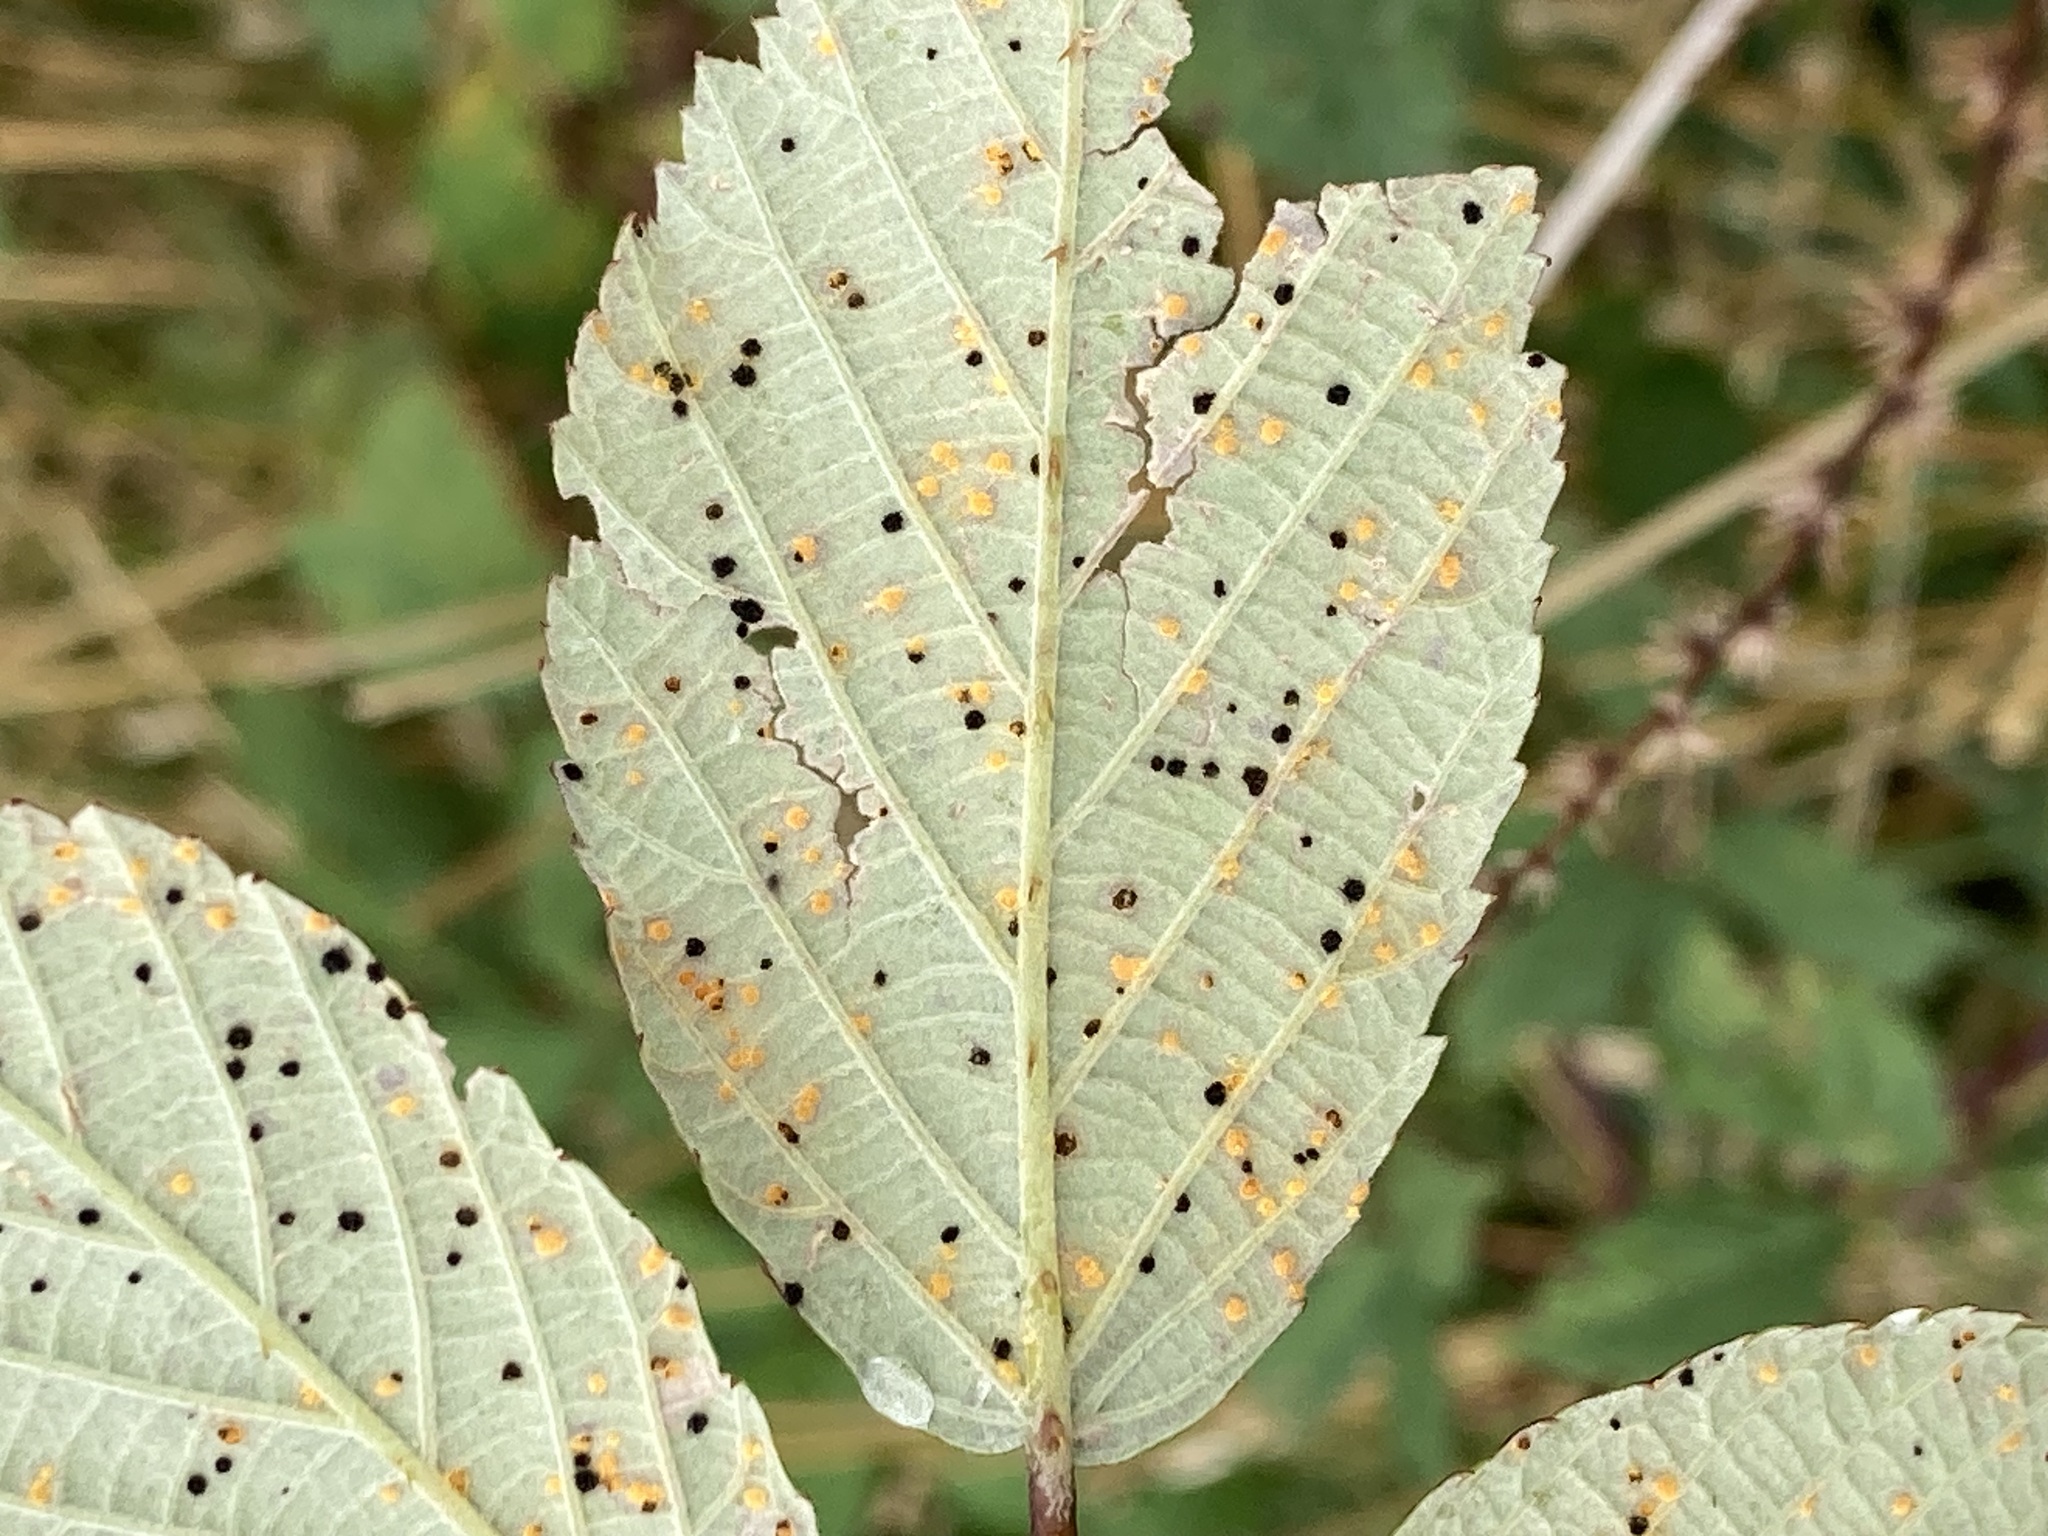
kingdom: Fungi
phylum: Basidiomycota
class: Pucciniomycetes
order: Pucciniales
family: Phragmidiaceae
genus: Phragmidium
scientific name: Phragmidium violaceum
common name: Violet bramble rust
